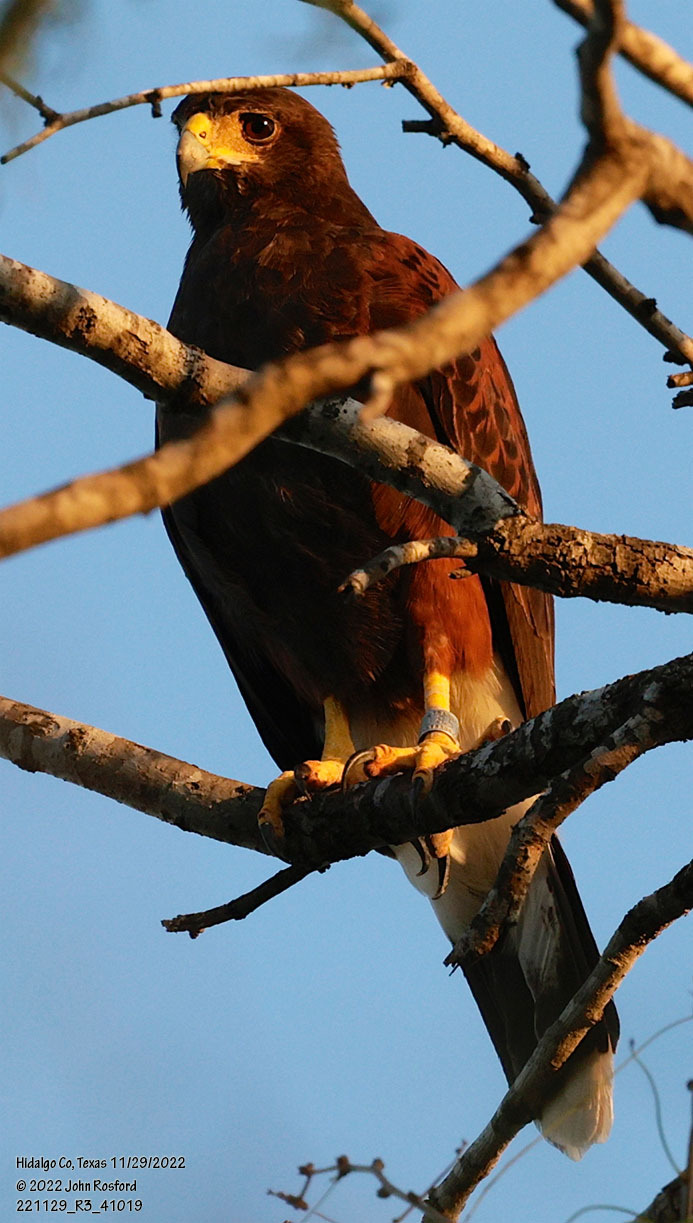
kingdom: Animalia
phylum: Chordata
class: Aves
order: Accipitriformes
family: Accipitridae
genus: Parabuteo
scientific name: Parabuteo unicinctus
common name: Harris's hawk
